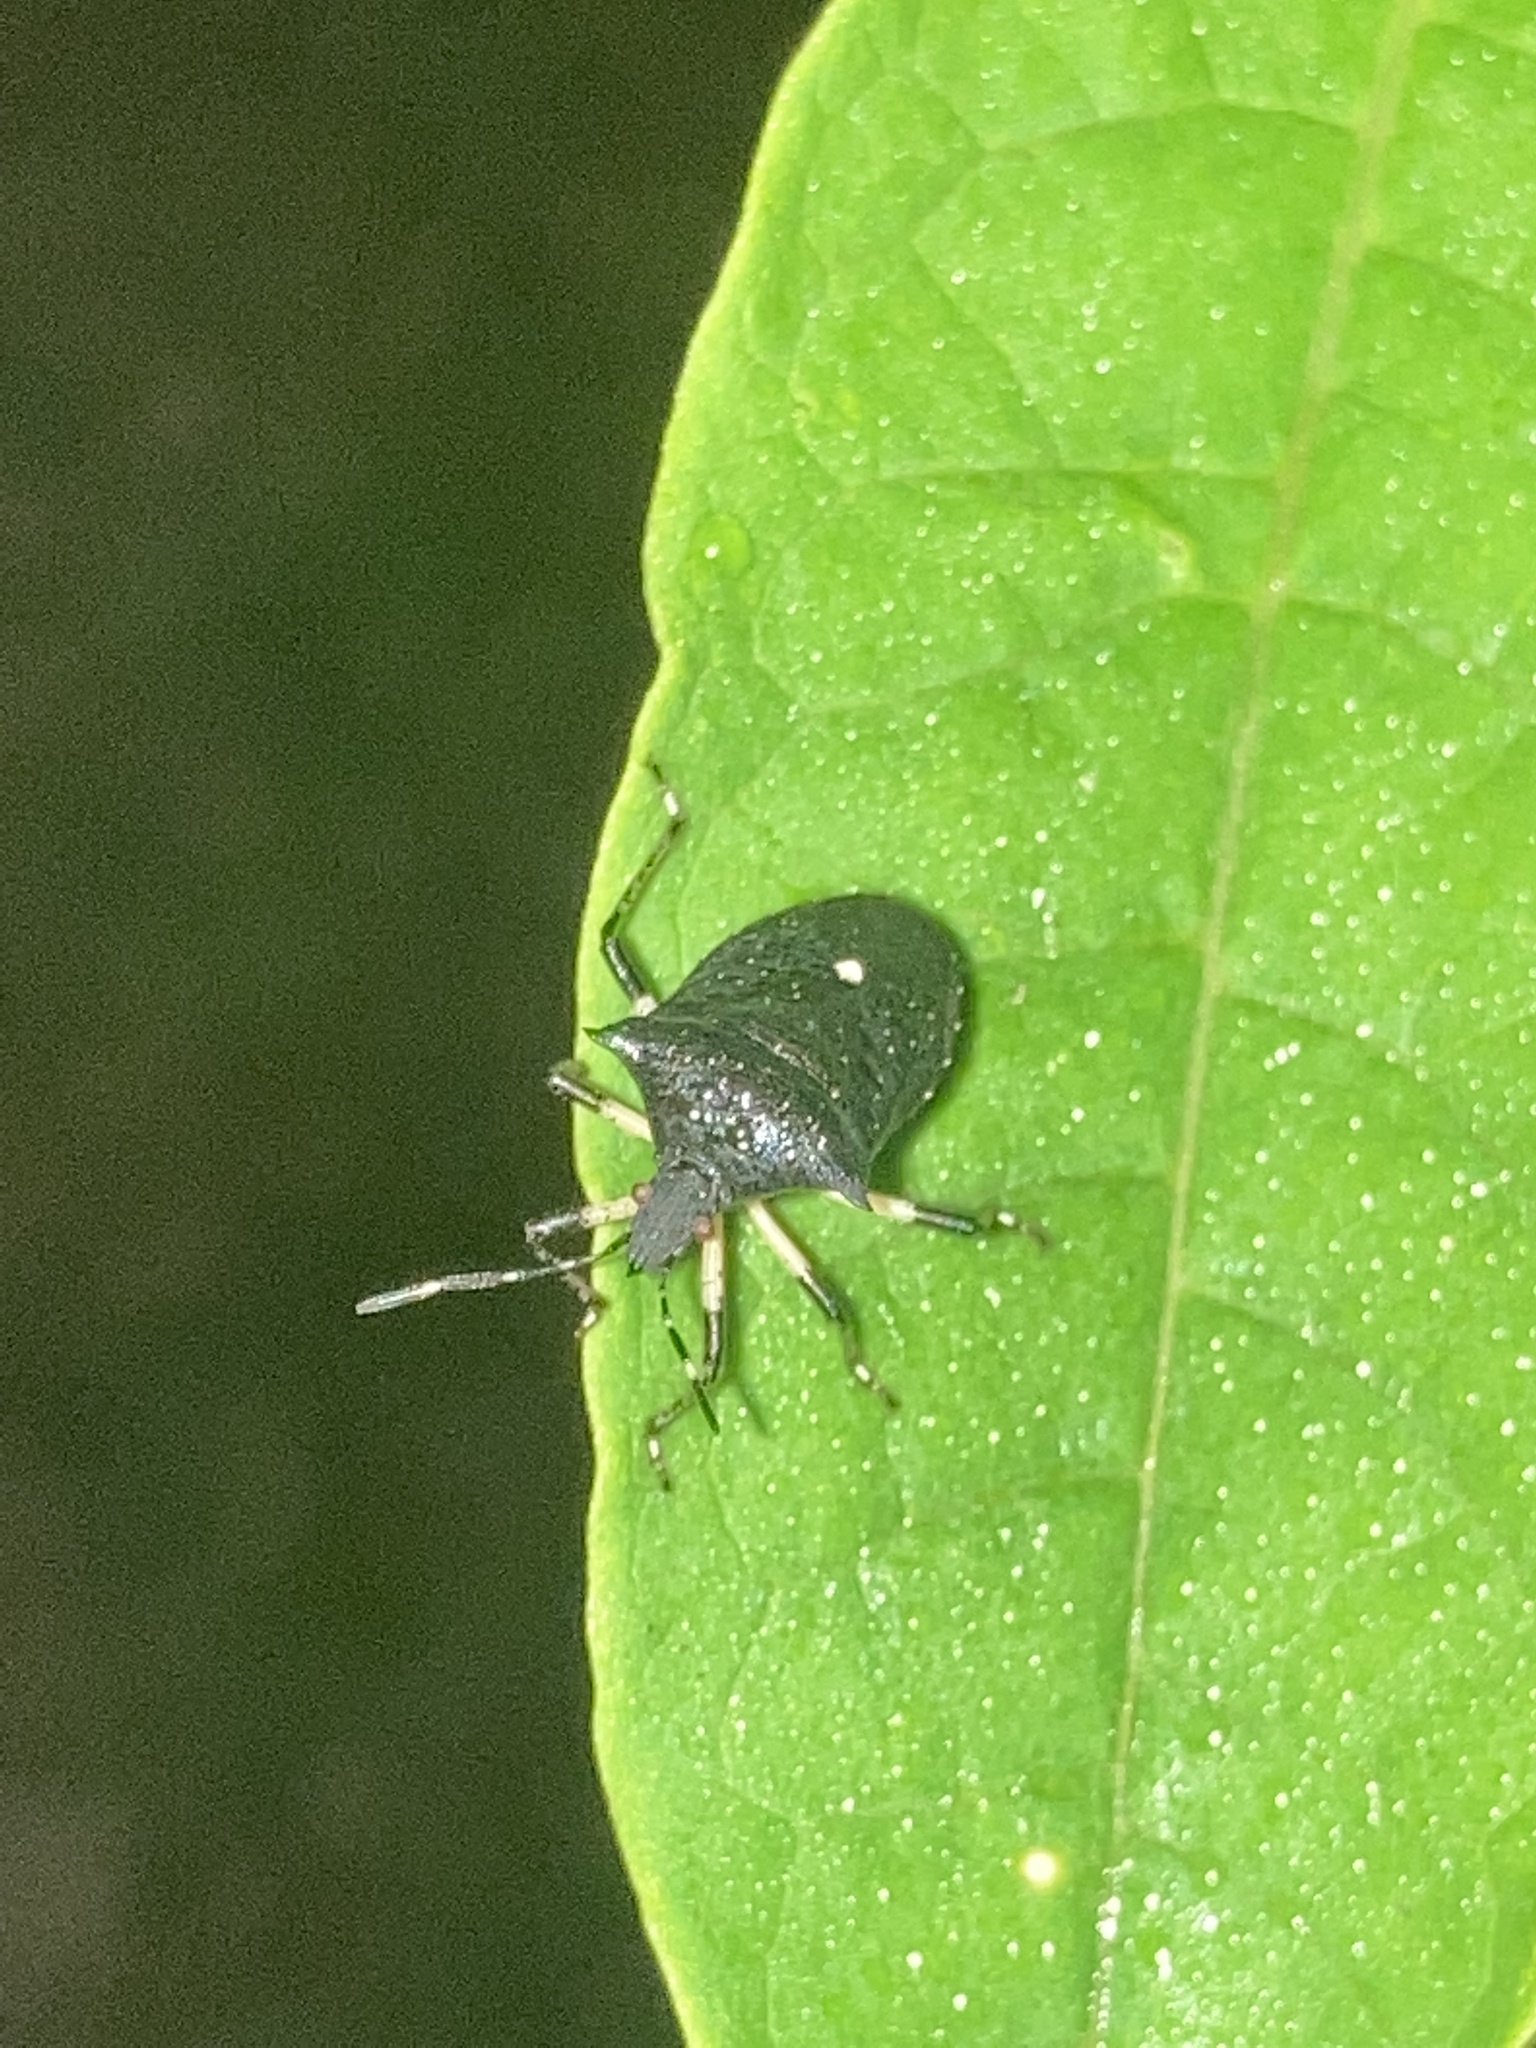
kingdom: Animalia
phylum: Arthropoda
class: Insecta
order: Hemiptera
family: Pentatomidae
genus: Proxys
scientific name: Proxys punctulatus
